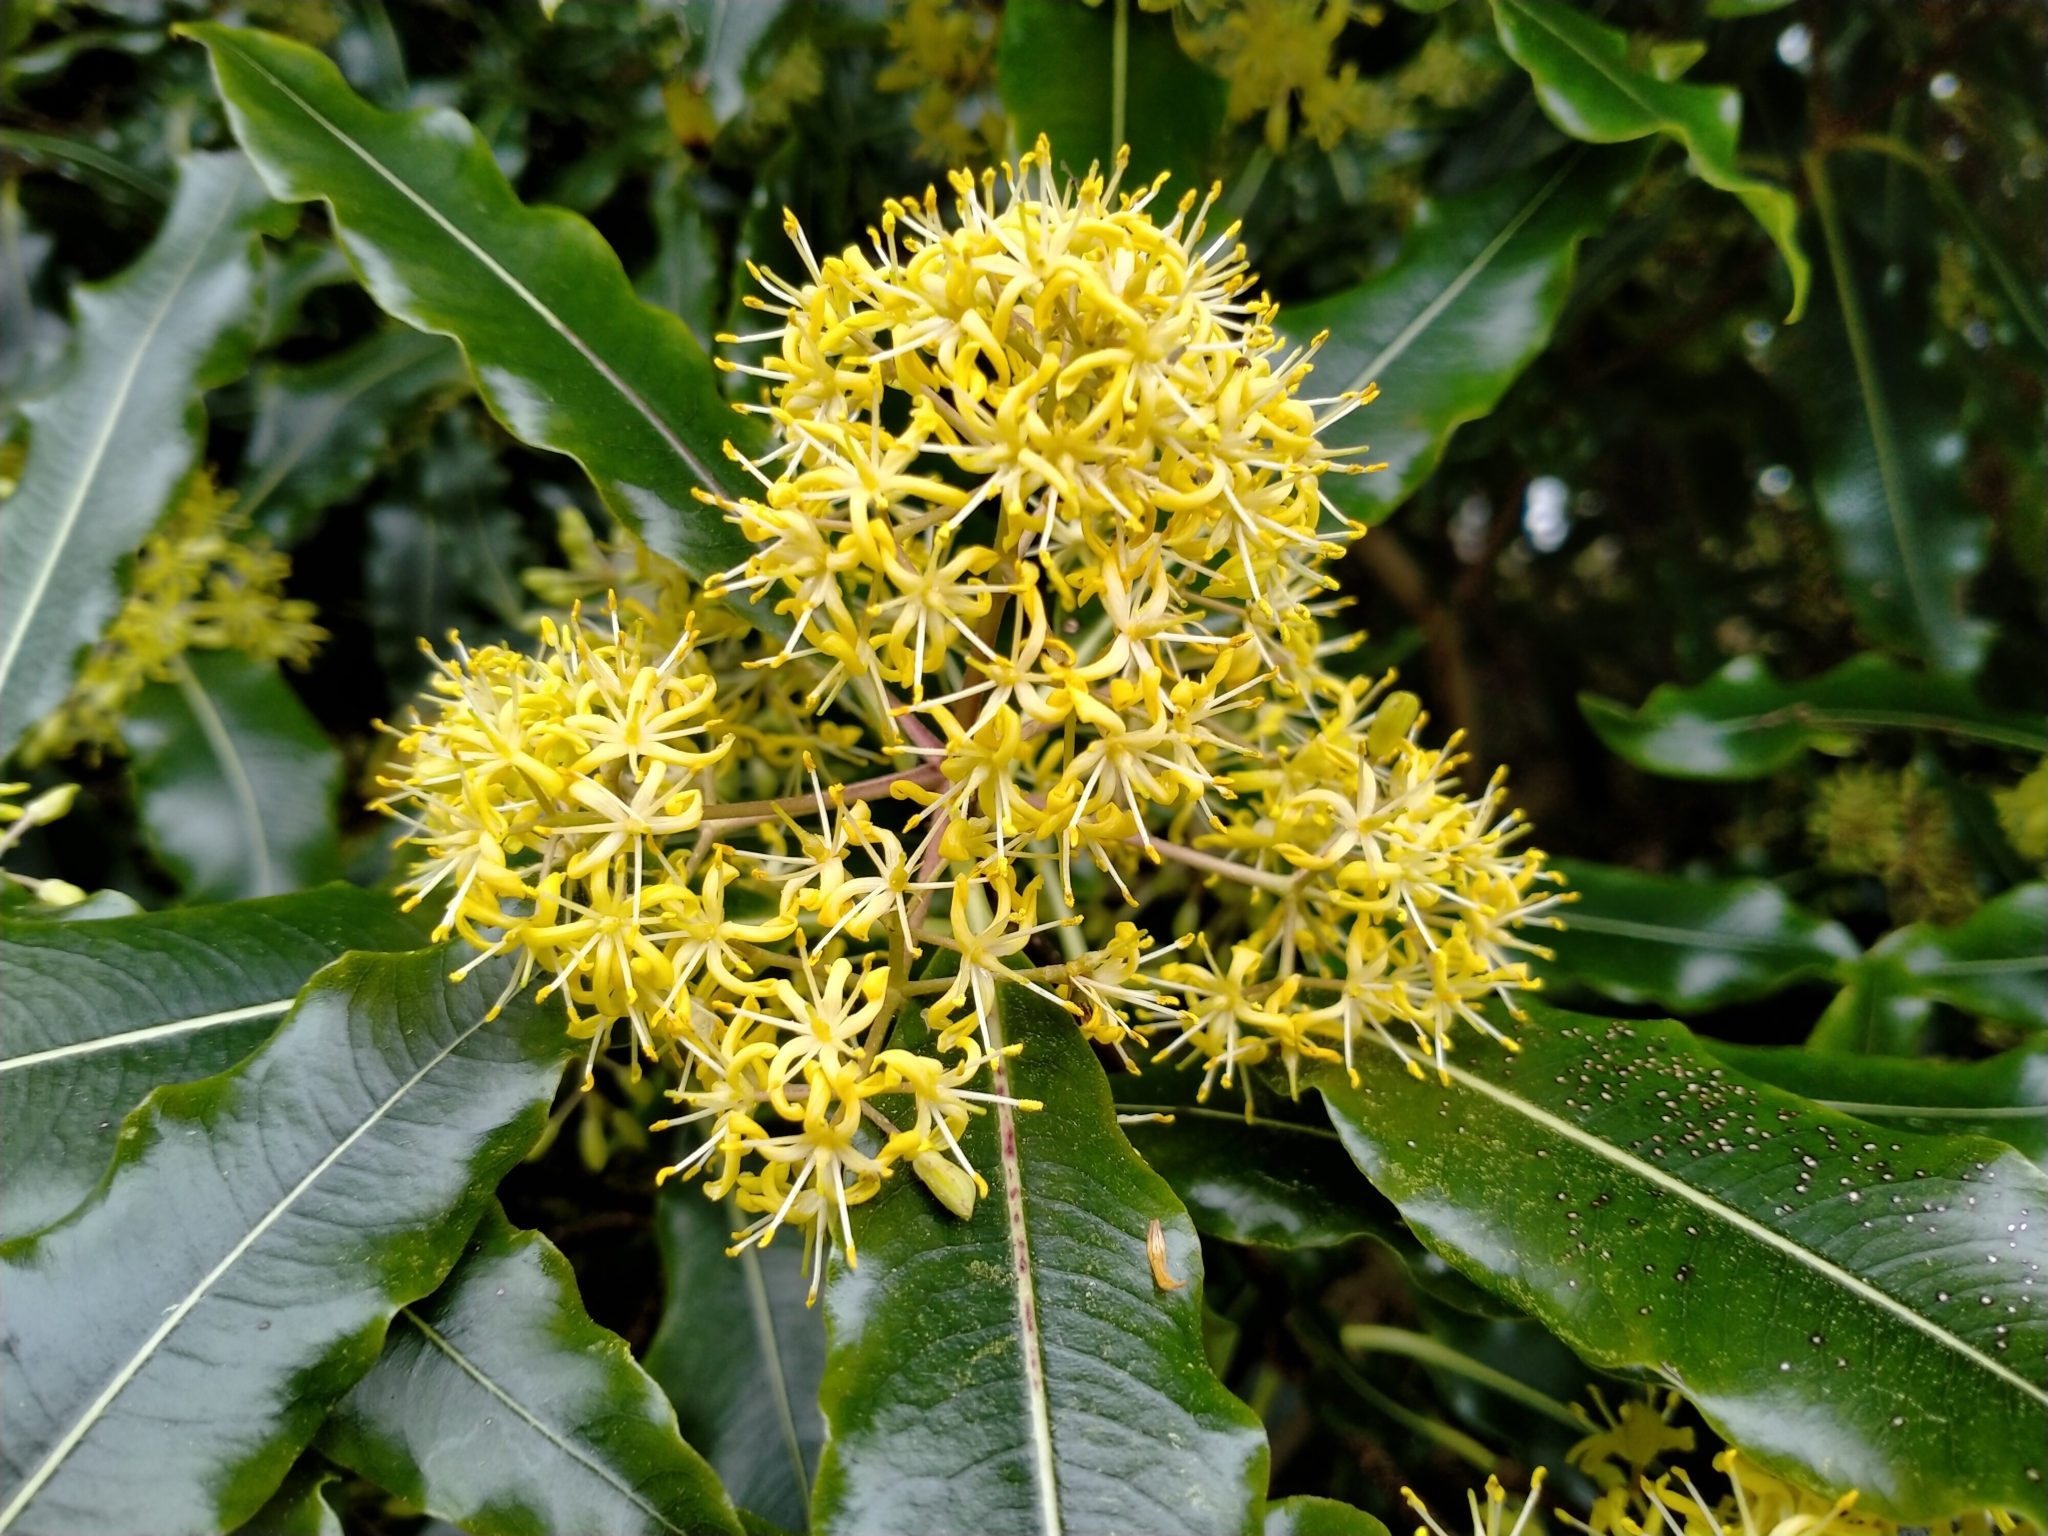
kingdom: Plantae
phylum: Tracheophyta
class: Magnoliopsida
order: Apiales
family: Pittosporaceae
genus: Pittosporum
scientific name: Pittosporum eugenioides
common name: Lemonwood
